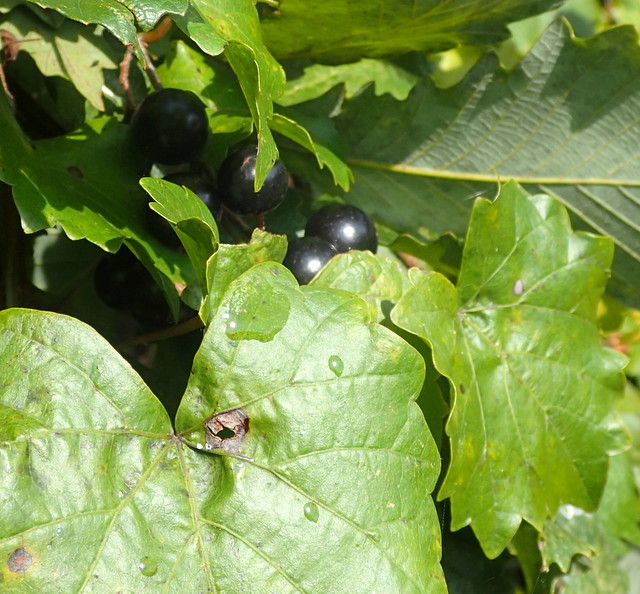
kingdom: Plantae
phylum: Tracheophyta
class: Magnoliopsida
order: Vitales
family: Vitaceae
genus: Vitis
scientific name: Vitis rotundifolia
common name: Muscadine grape
